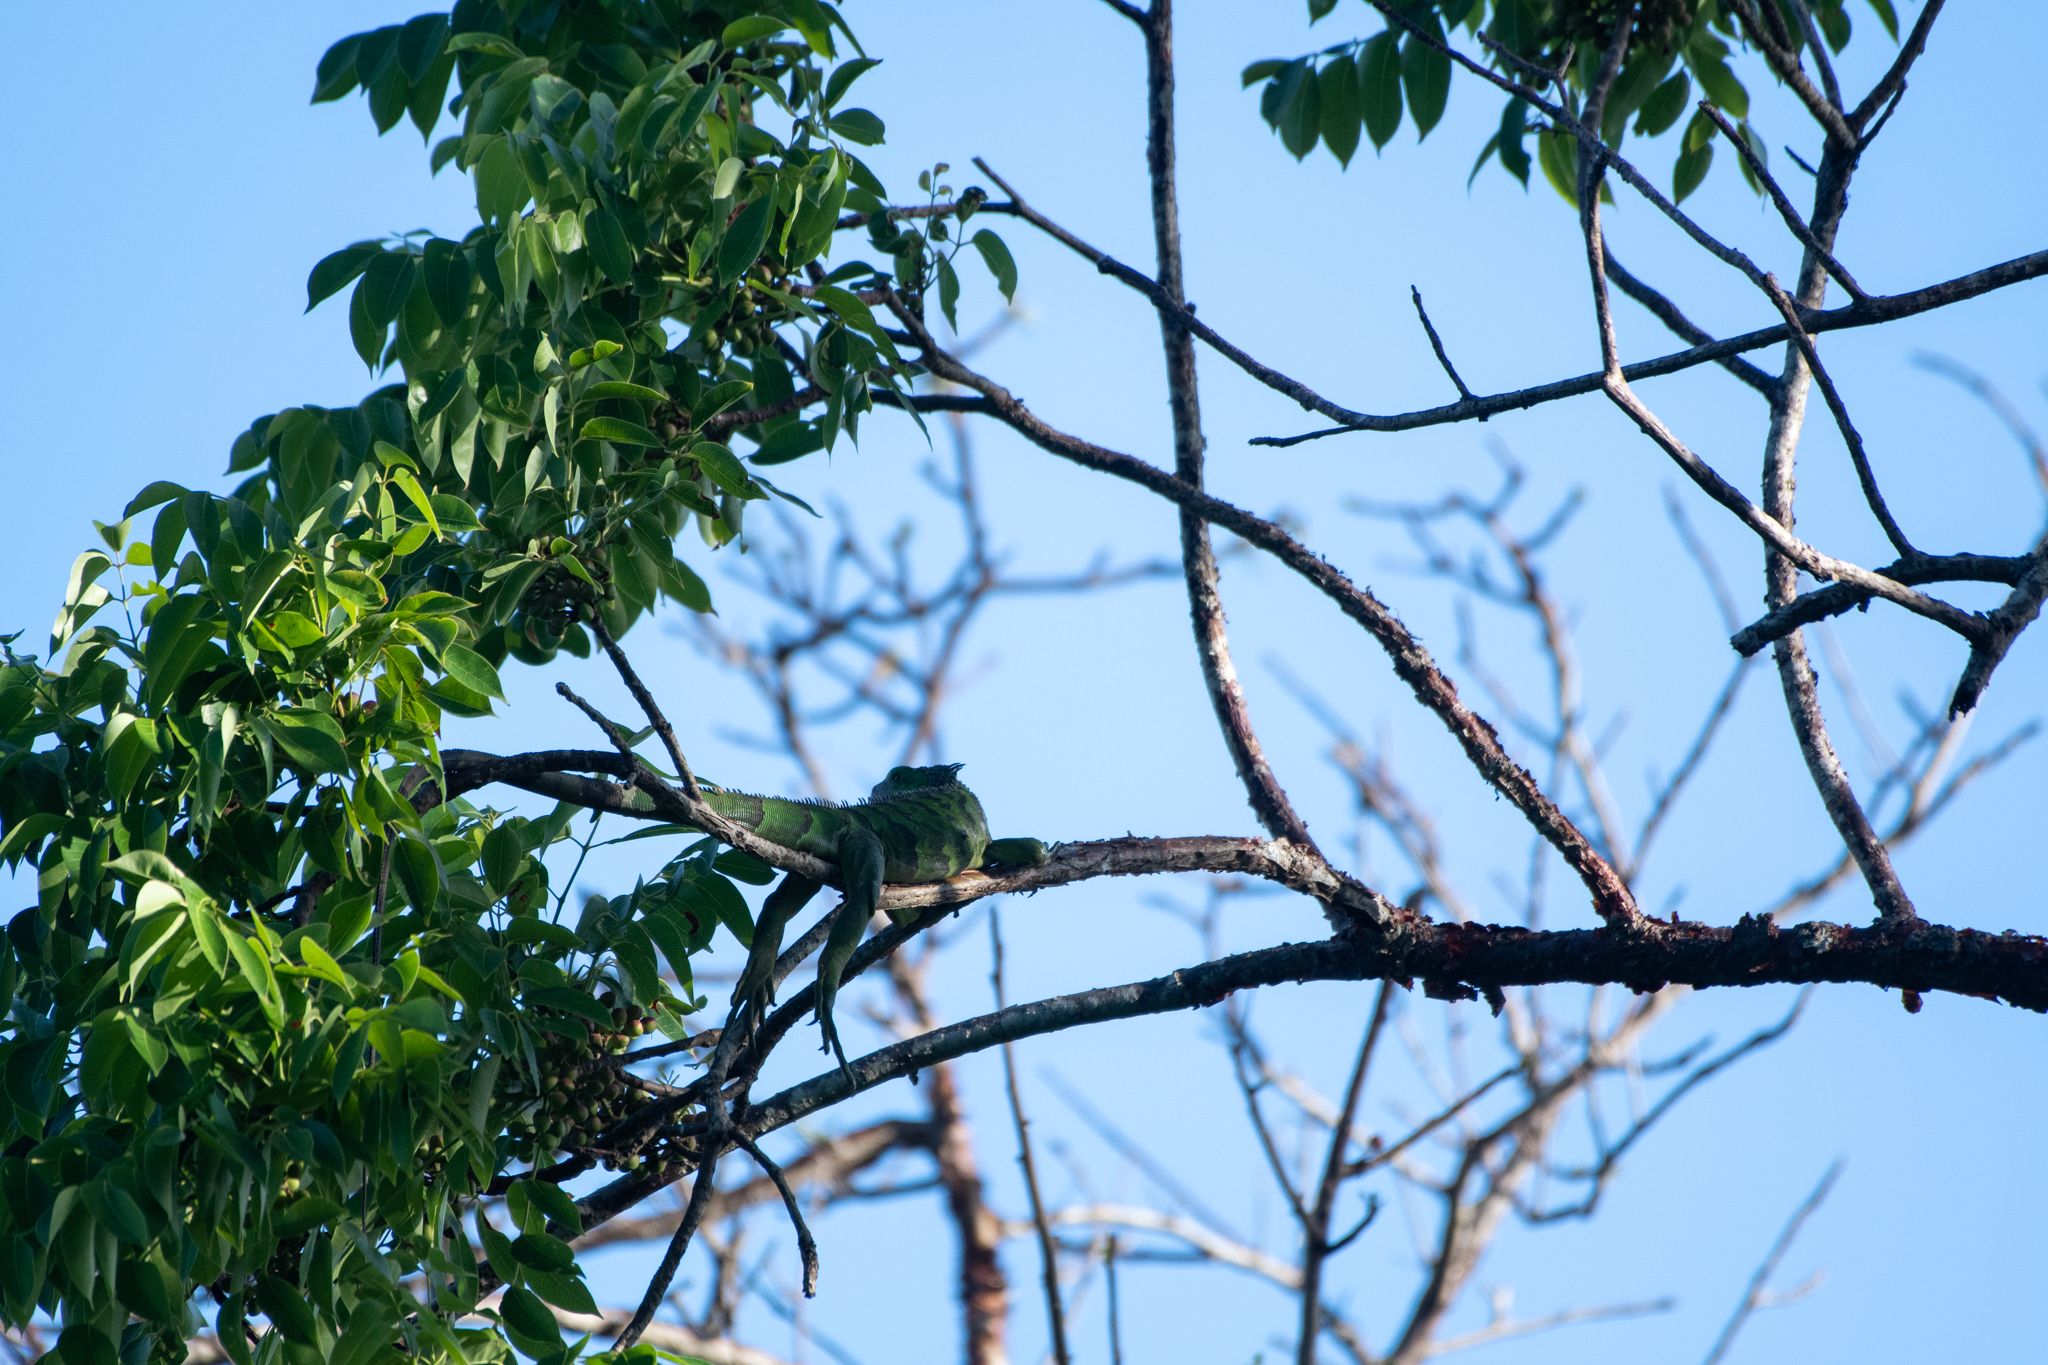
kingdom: Animalia
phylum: Chordata
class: Squamata
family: Iguanidae
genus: Iguana
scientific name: Iguana iguana
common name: Green iguana
